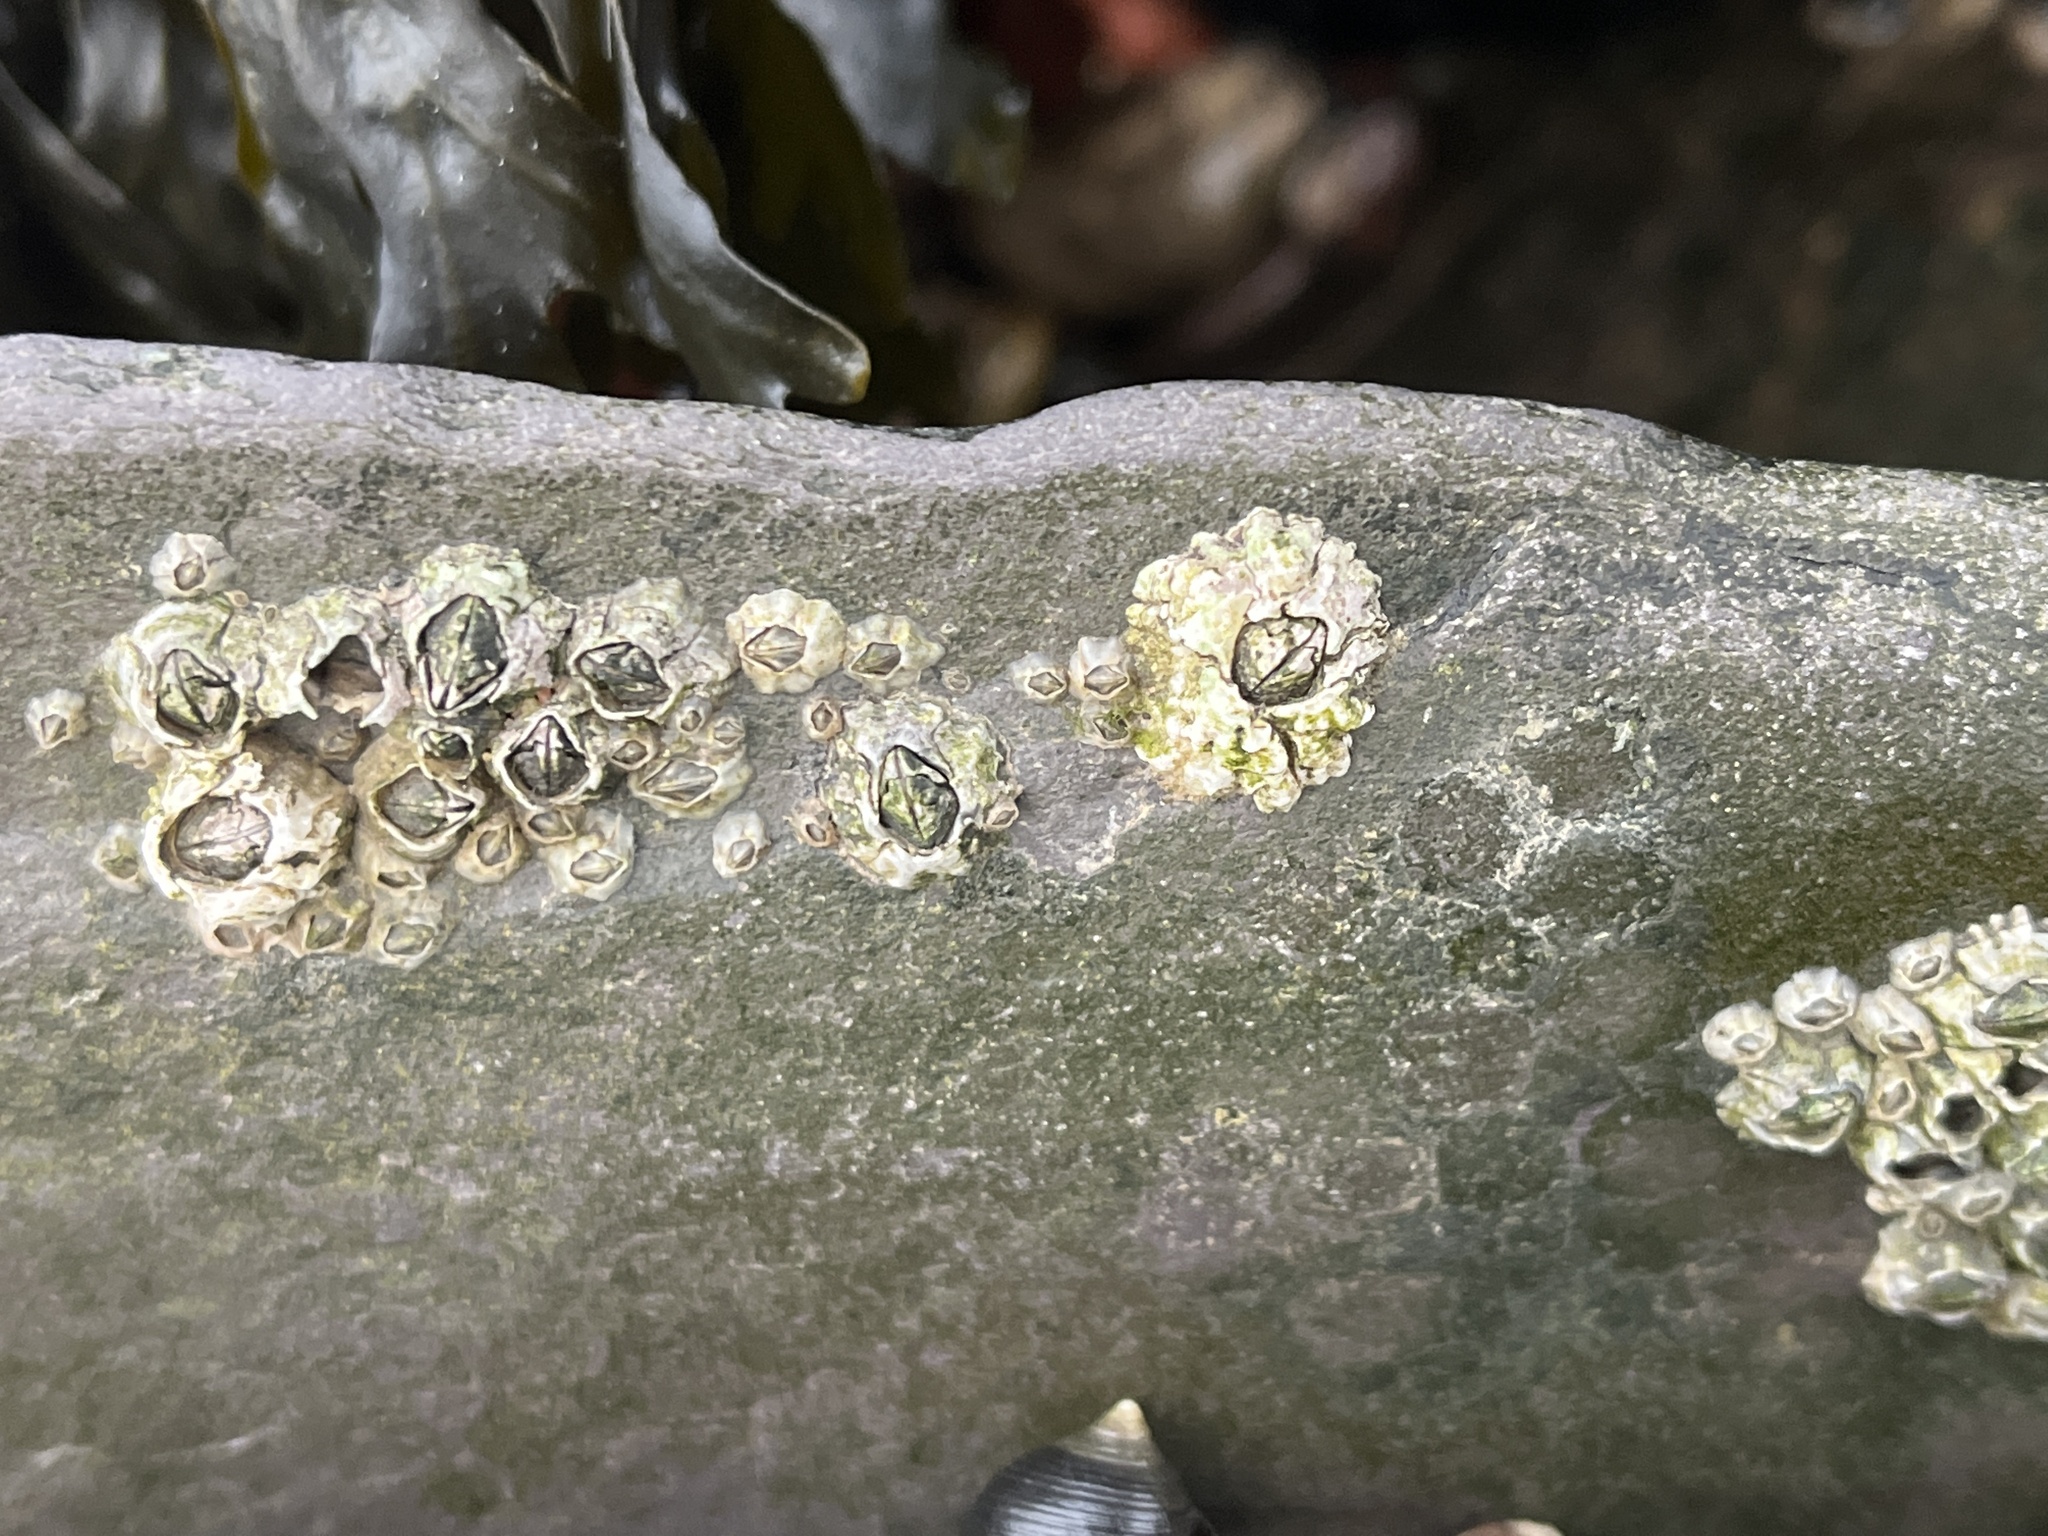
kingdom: Animalia
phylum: Arthropoda
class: Maxillopoda
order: Sessilia
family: Archaeobalanidae
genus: Semibalanus
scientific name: Semibalanus balanoides
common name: Acorn barnacle
